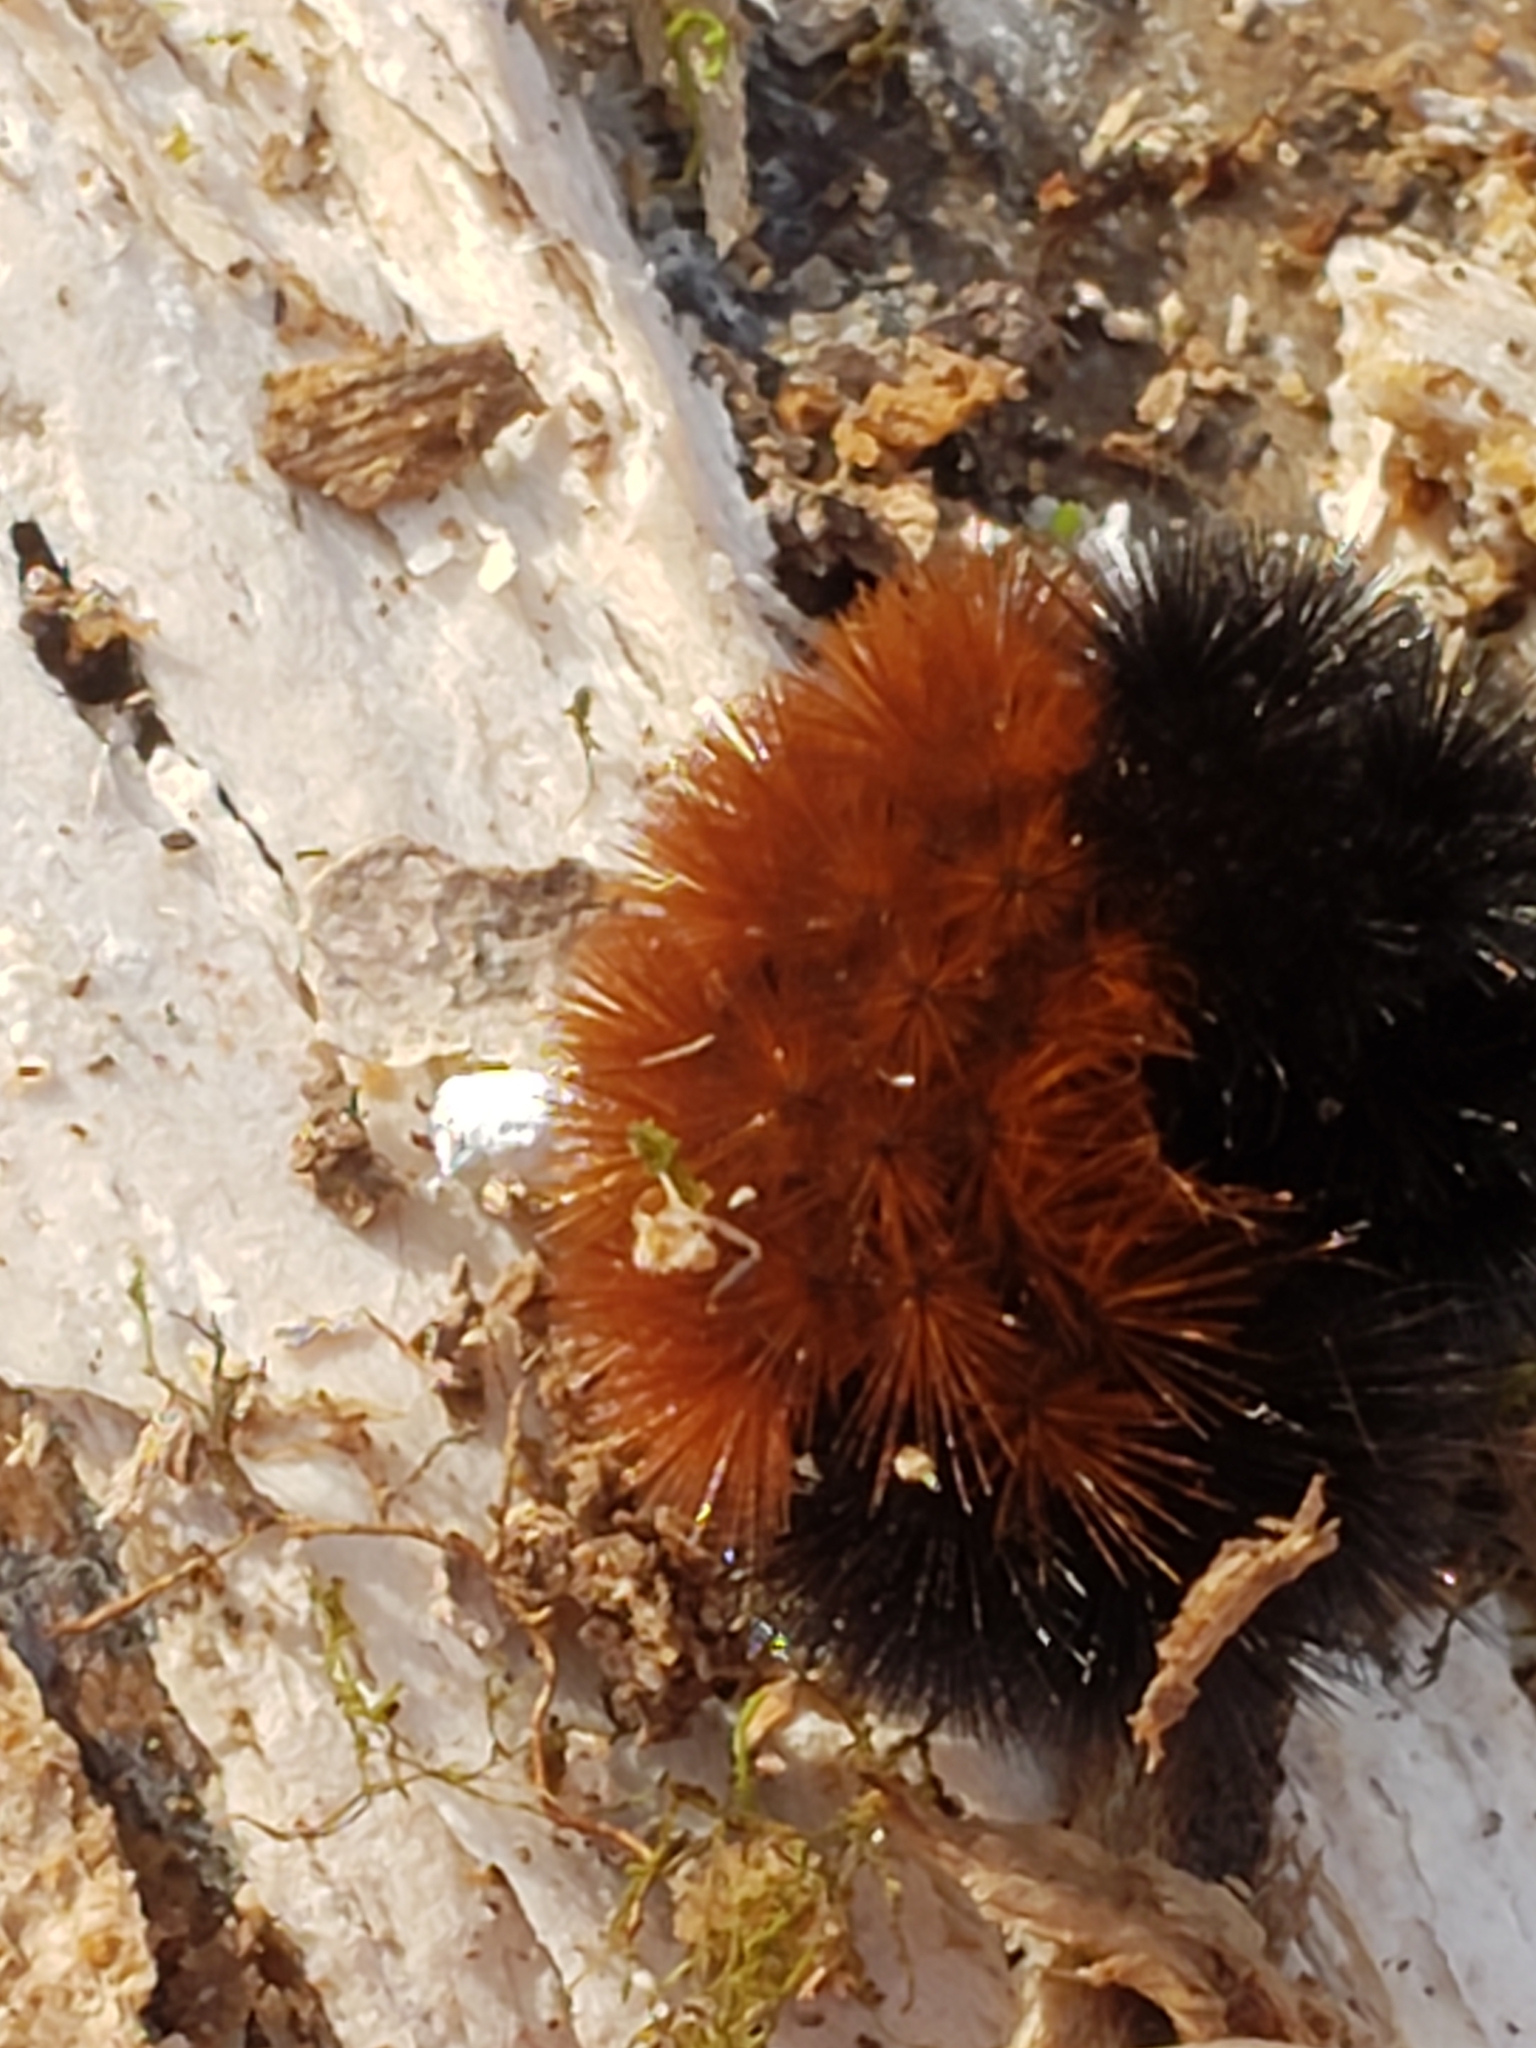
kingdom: Animalia
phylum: Arthropoda
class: Insecta
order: Lepidoptera
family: Erebidae
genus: Pyrrharctia
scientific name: Pyrrharctia isabella
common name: Isabella tiger moth
